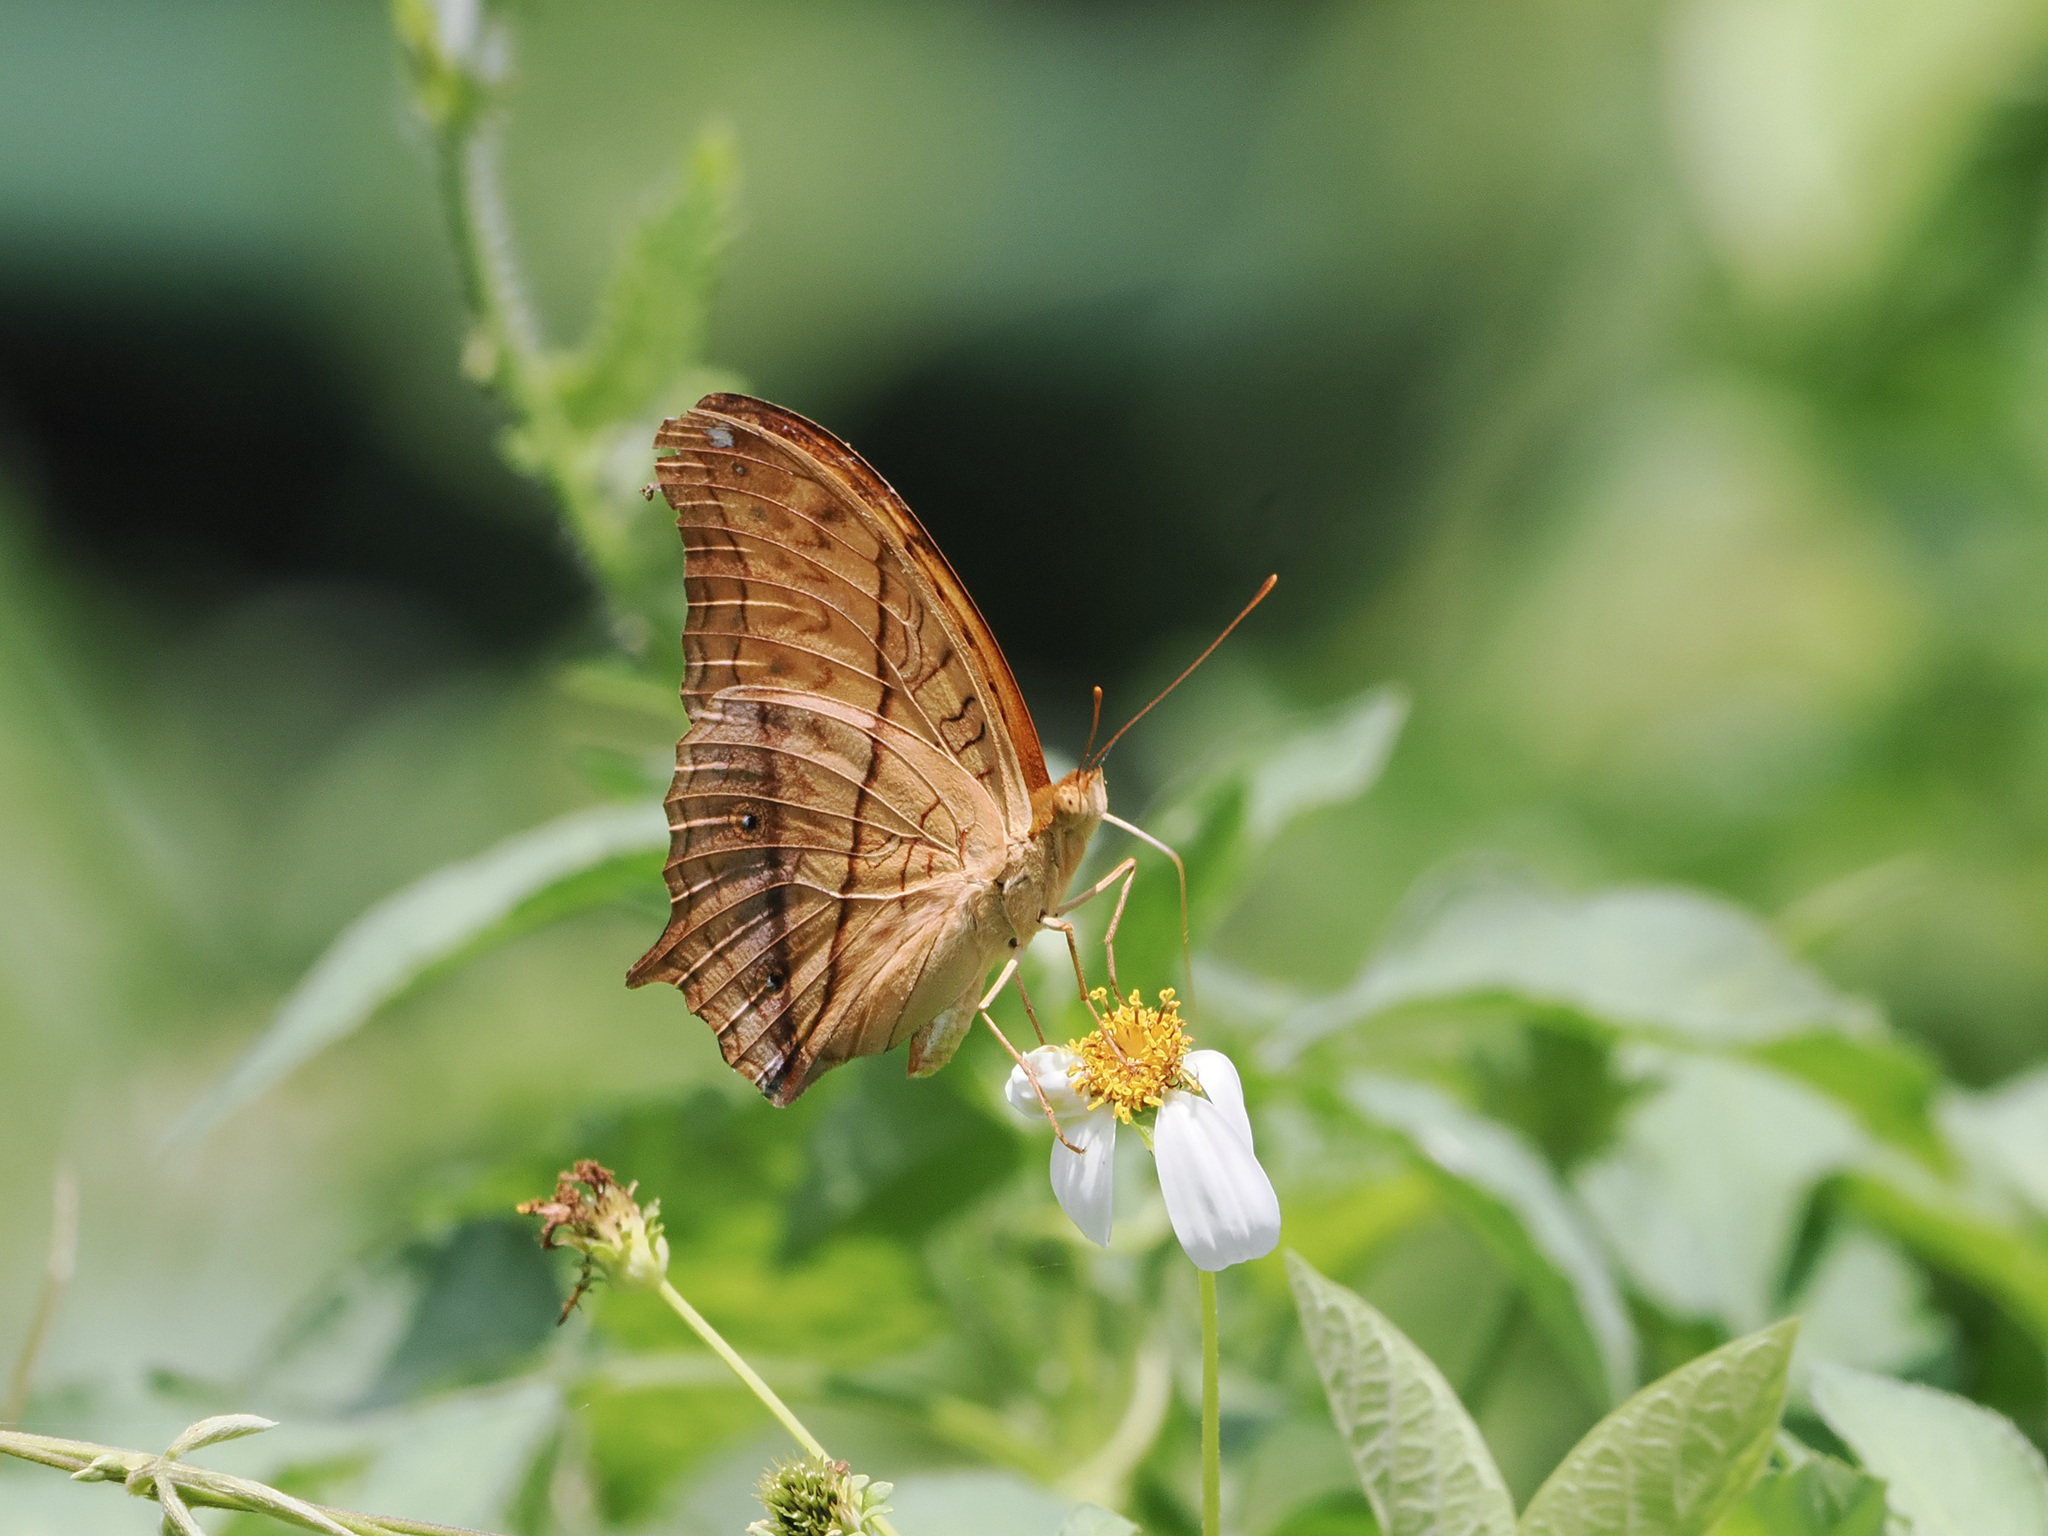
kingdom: Animalia
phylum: Arthropoda
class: Insecta
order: Lepidoptera
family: Nymphalidae
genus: Vindula
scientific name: Vindula deione
